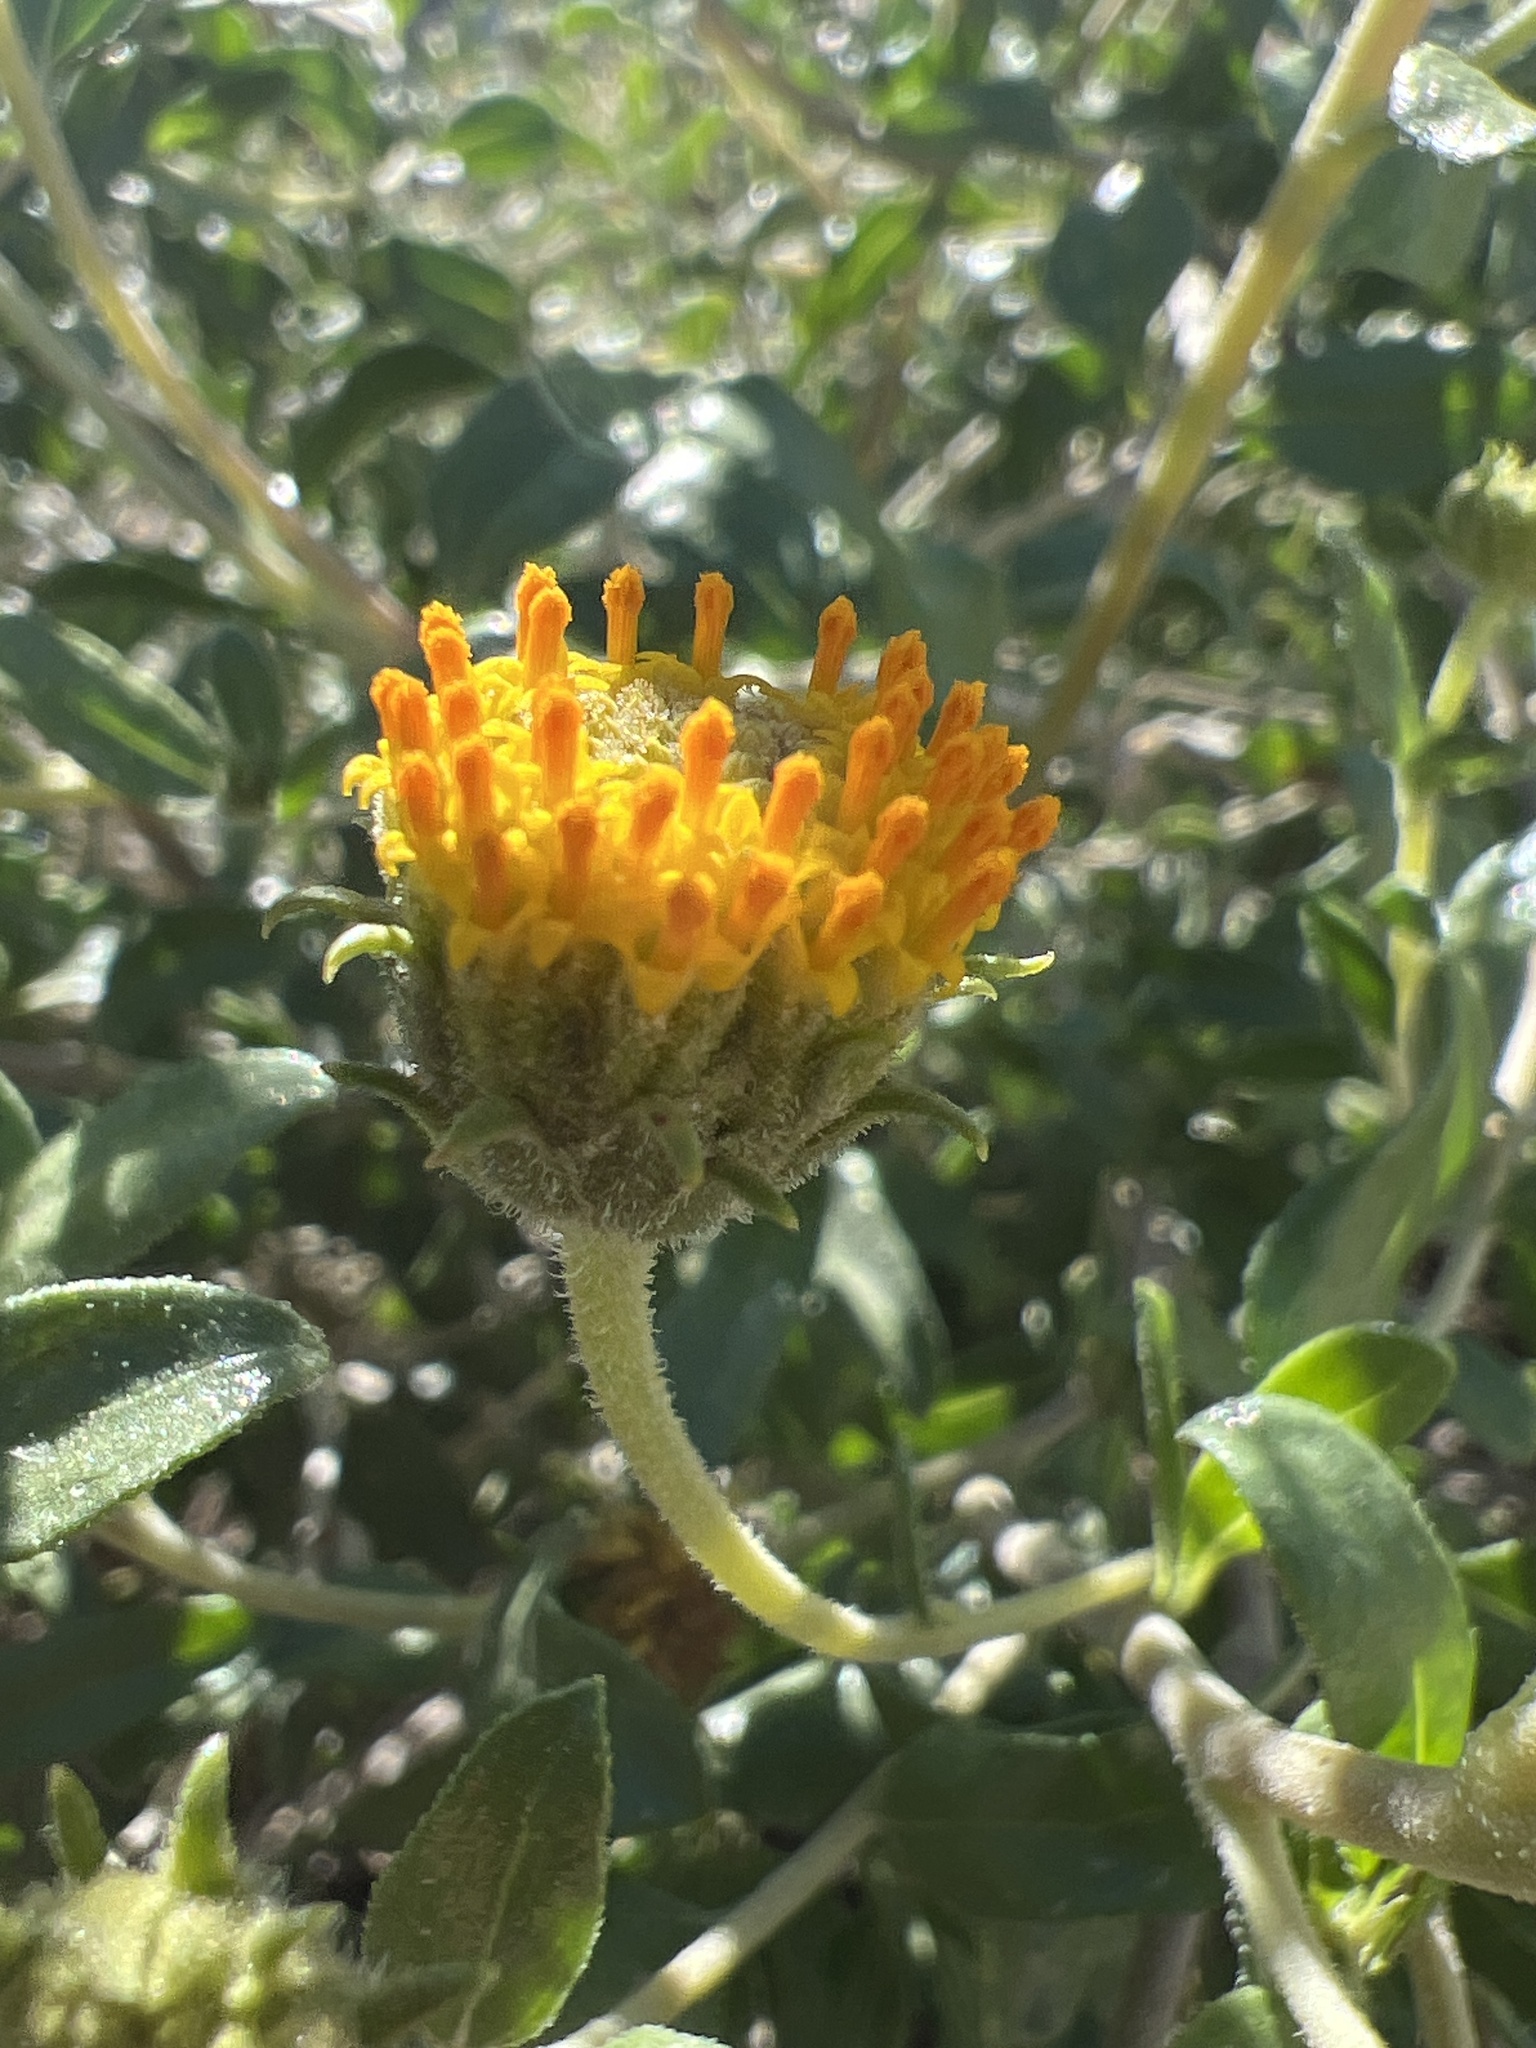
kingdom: Plantae
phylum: Tracheophyta
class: Magnoliopsida
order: Asterales
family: Asteraceae
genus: Encelia
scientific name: Encelia frutescens
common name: Bush encelia
